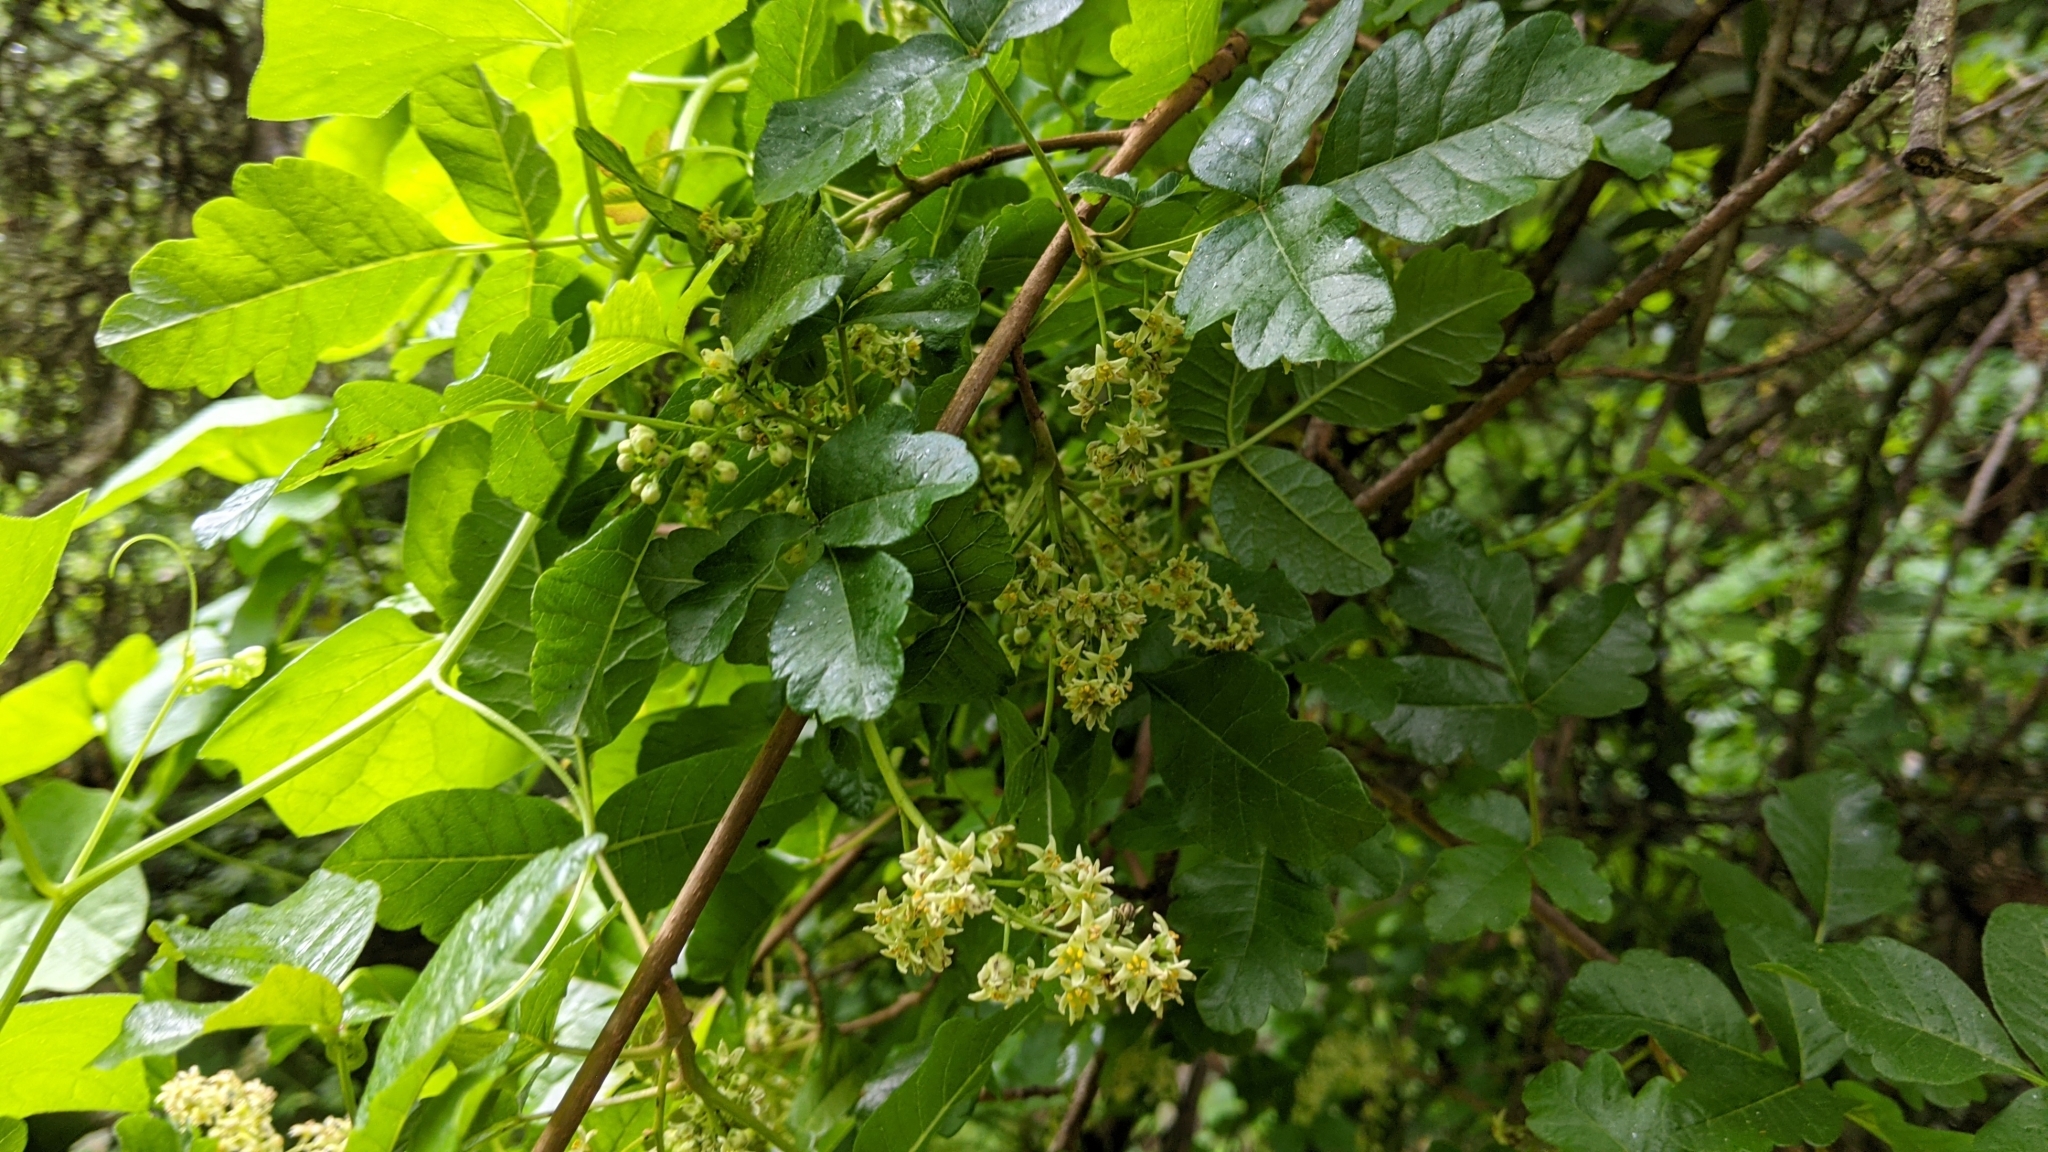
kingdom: Plantae
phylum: Tracheophyta
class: Magnoliopsida
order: Sapindales
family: Anacardiaceae
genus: Toxicodendron
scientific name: Toxicodendron diversilobum
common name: Pacific poison-oak
